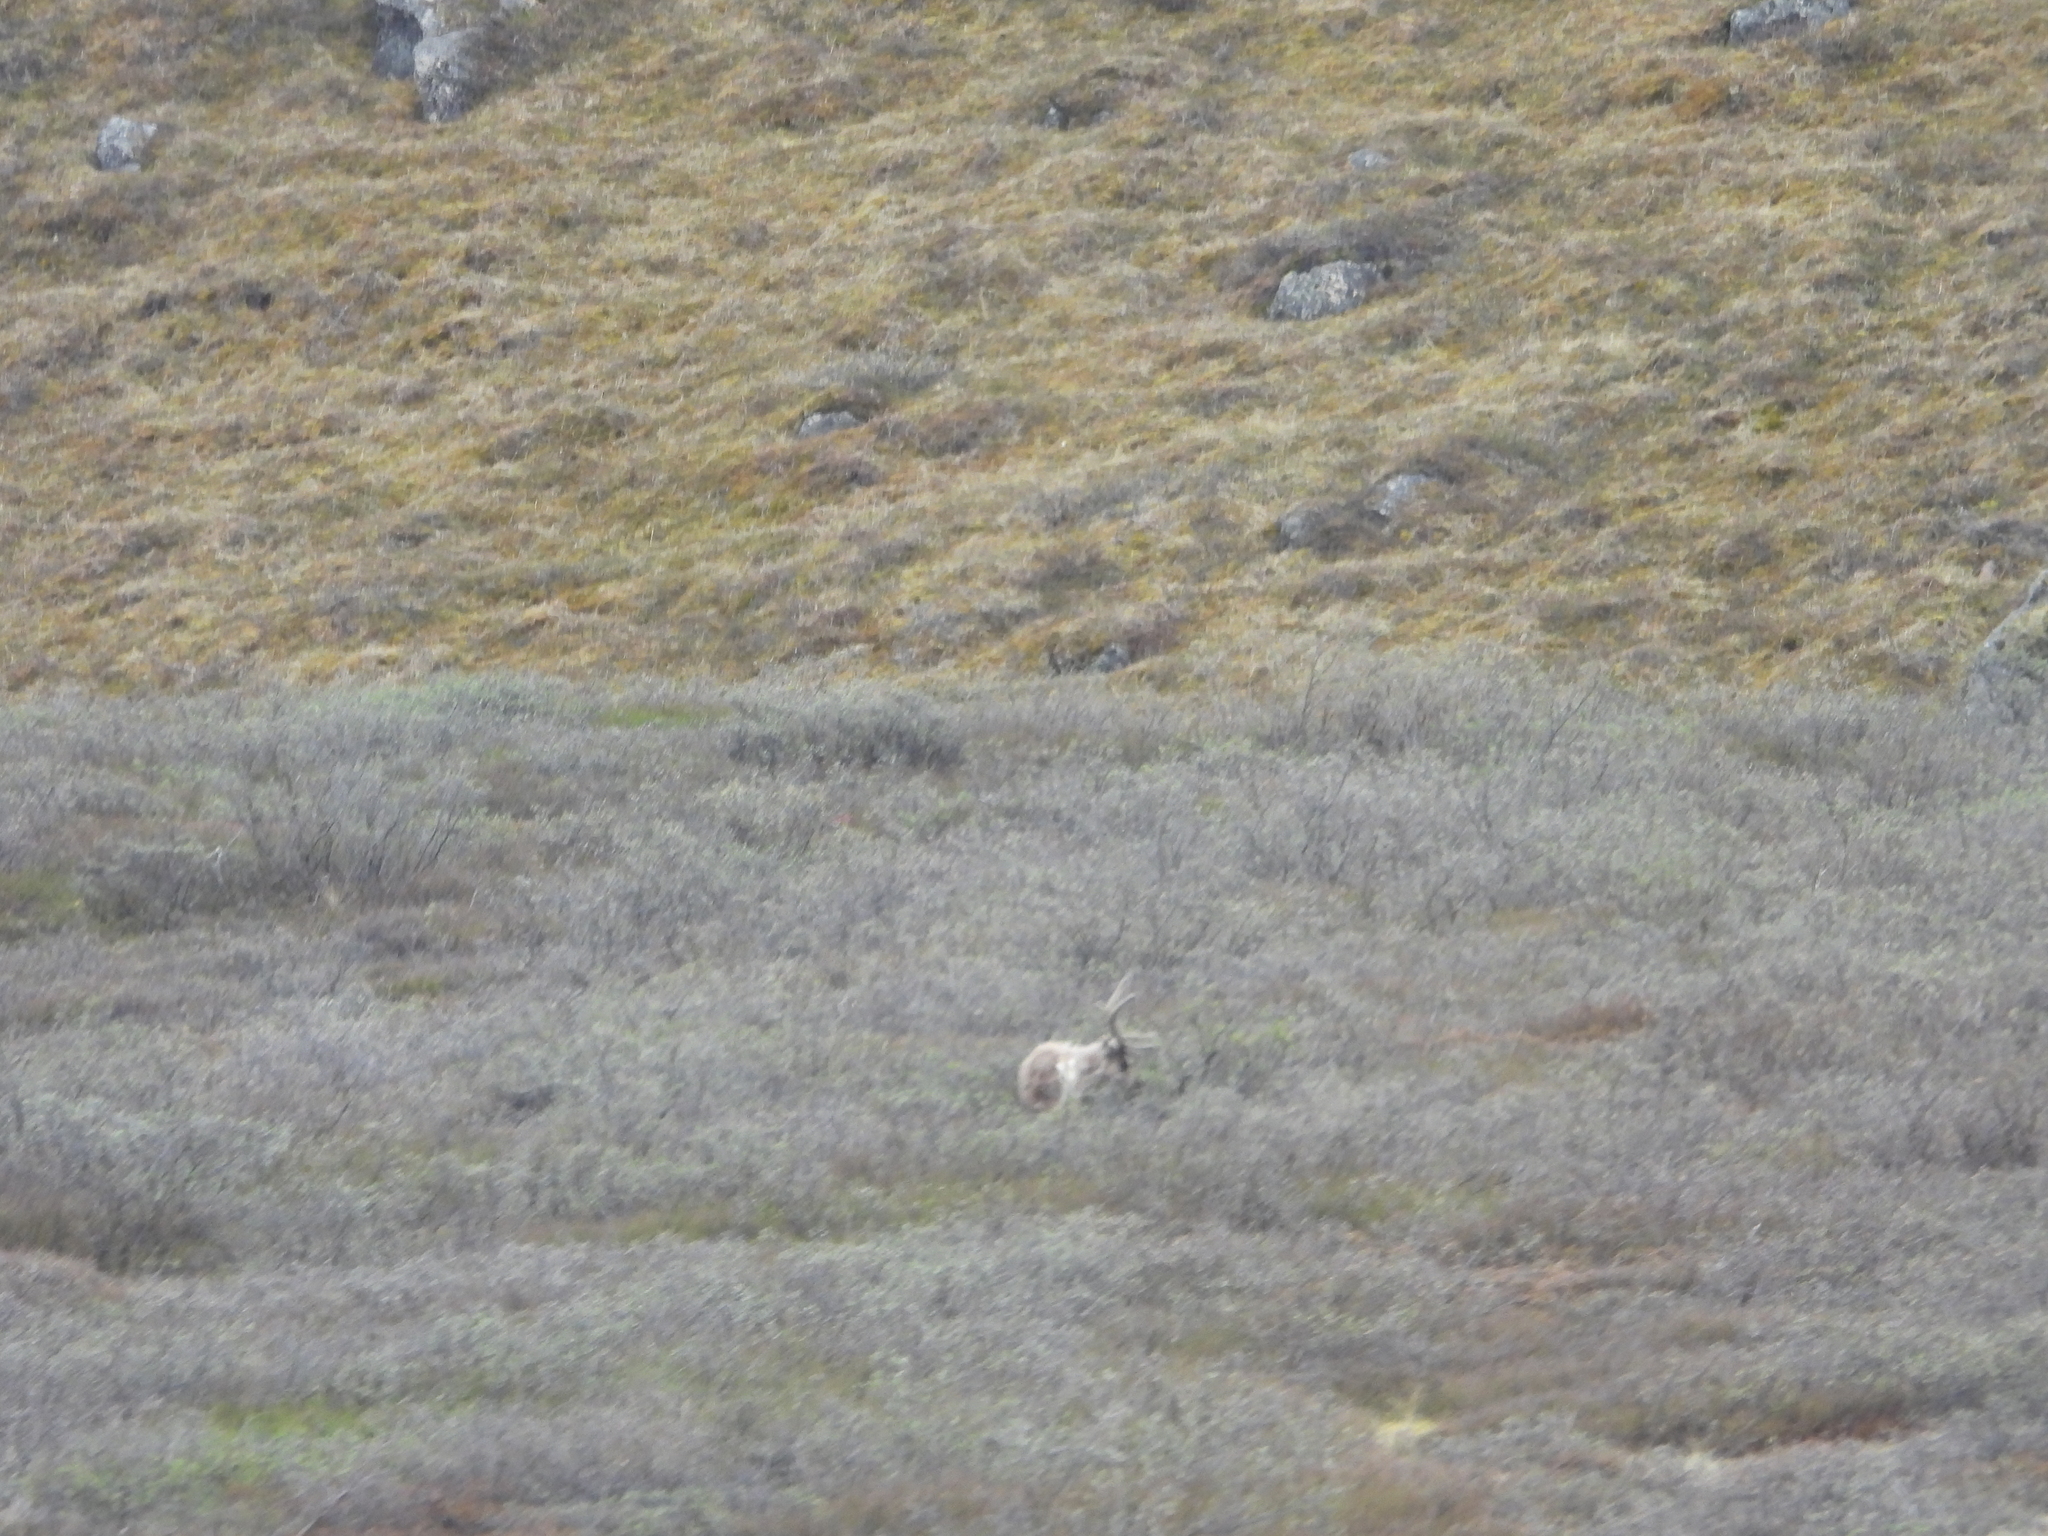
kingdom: Animalia
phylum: Chordata
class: Mammalia
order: Artiodactyla
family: Cervidae
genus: Rangifer
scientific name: Rangifer tarandus
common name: Reindeer
